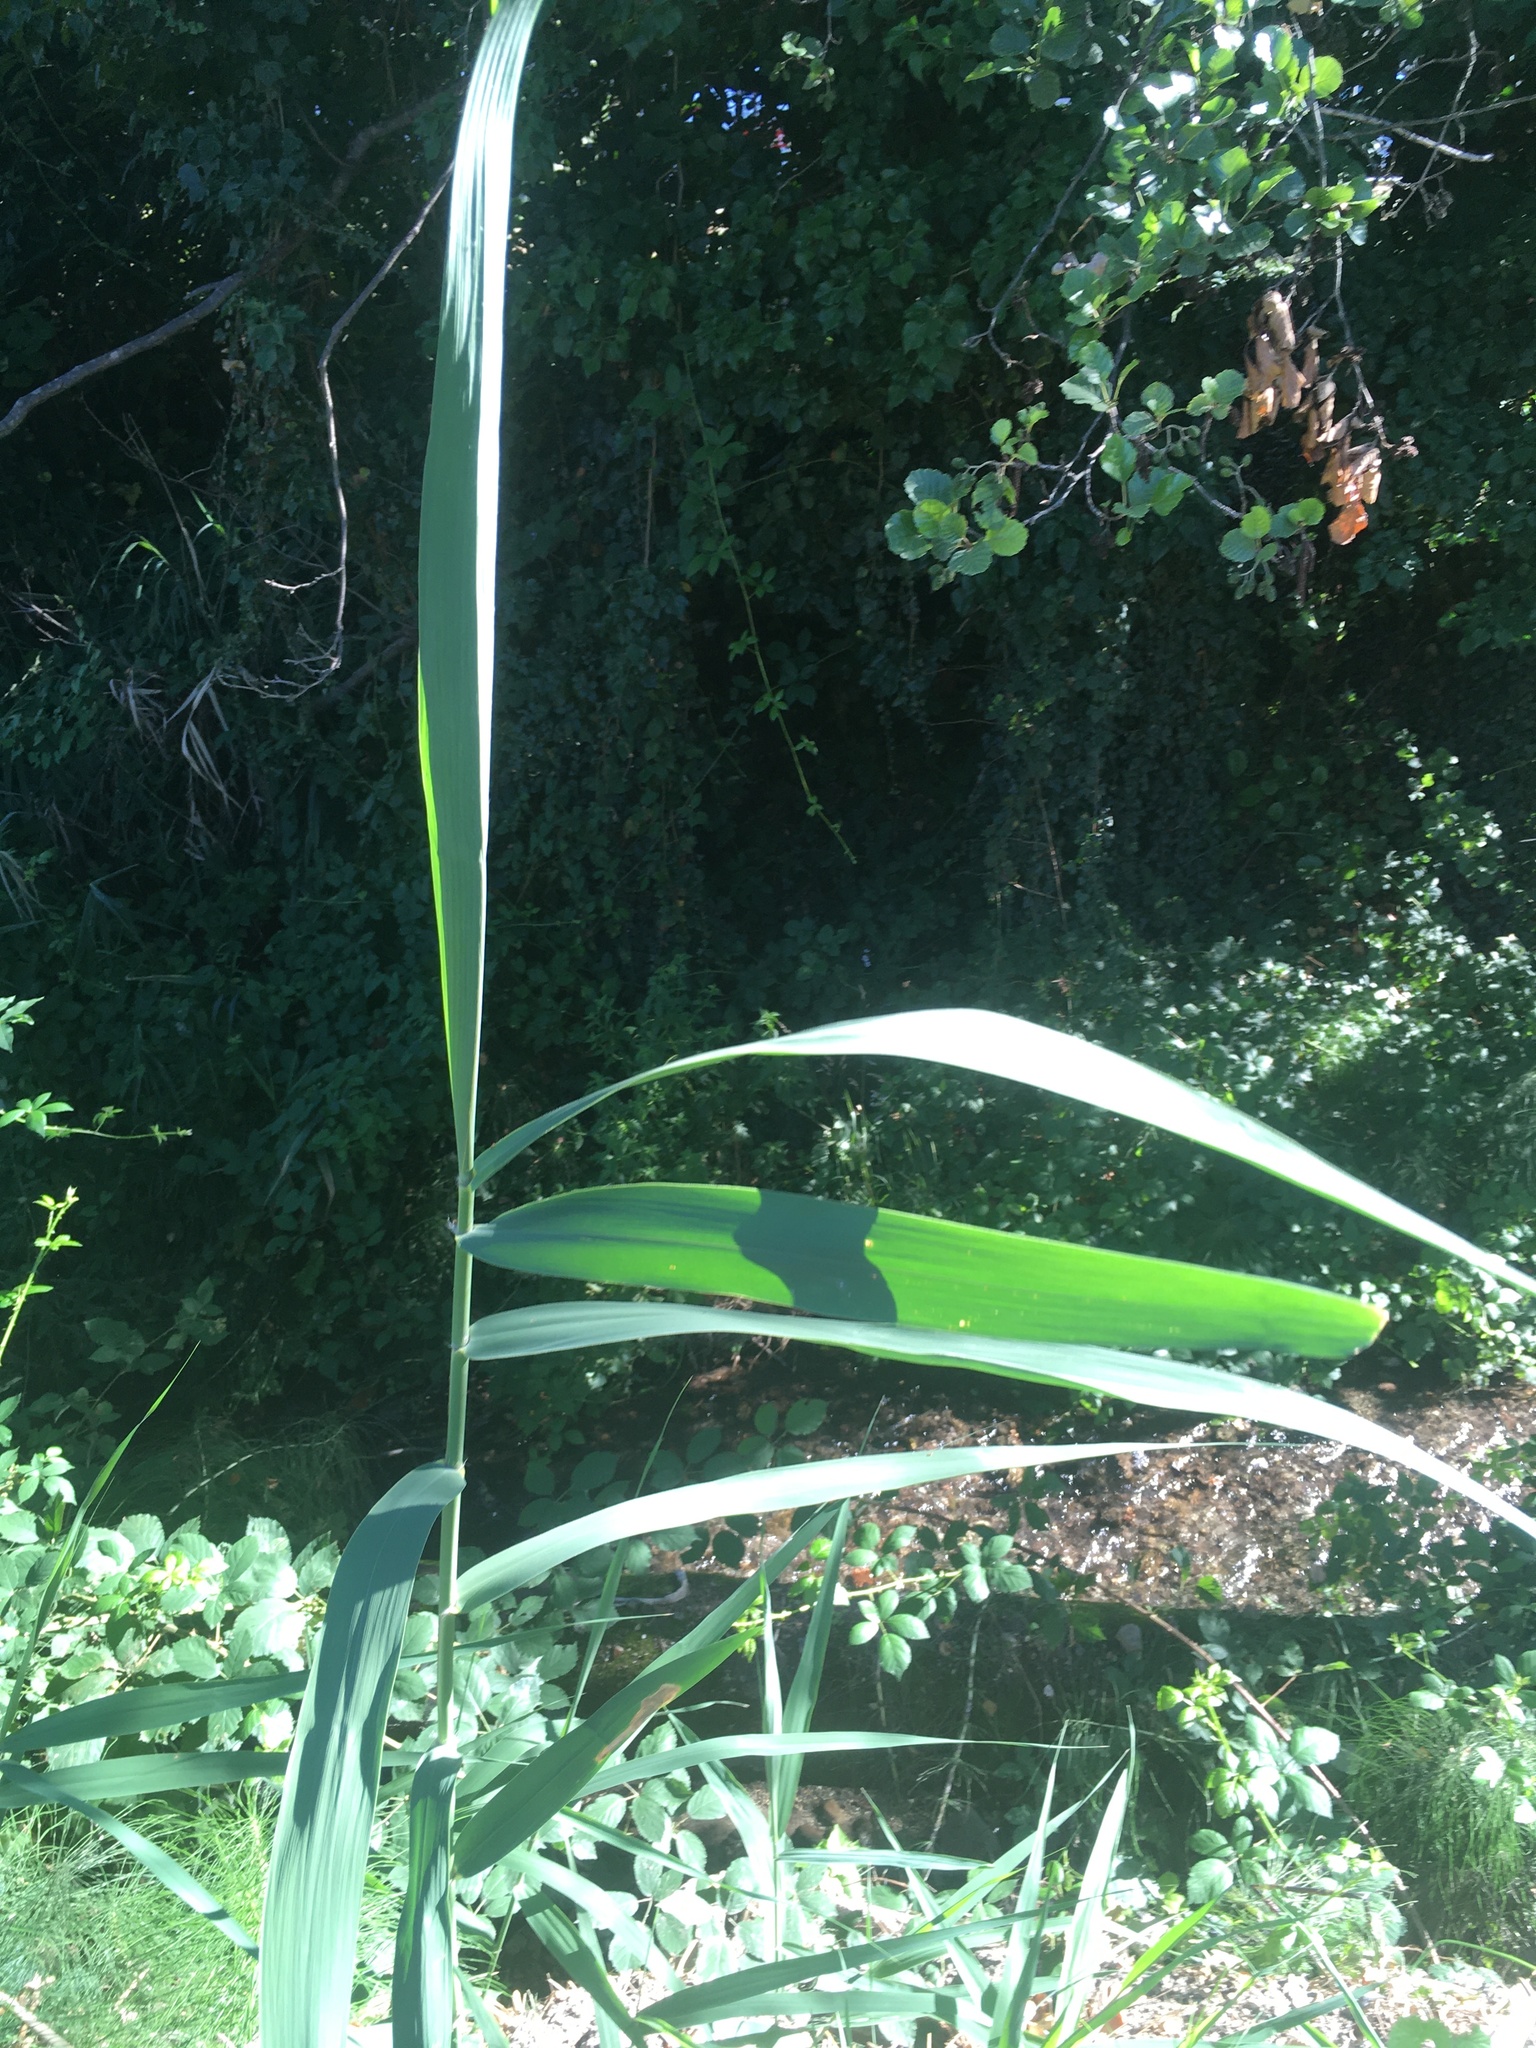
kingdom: Plantae
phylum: Tracheophyta
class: Liliopsida
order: Poales
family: Poaceae
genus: Phragmites
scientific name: Phragmites australis
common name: Common reed
